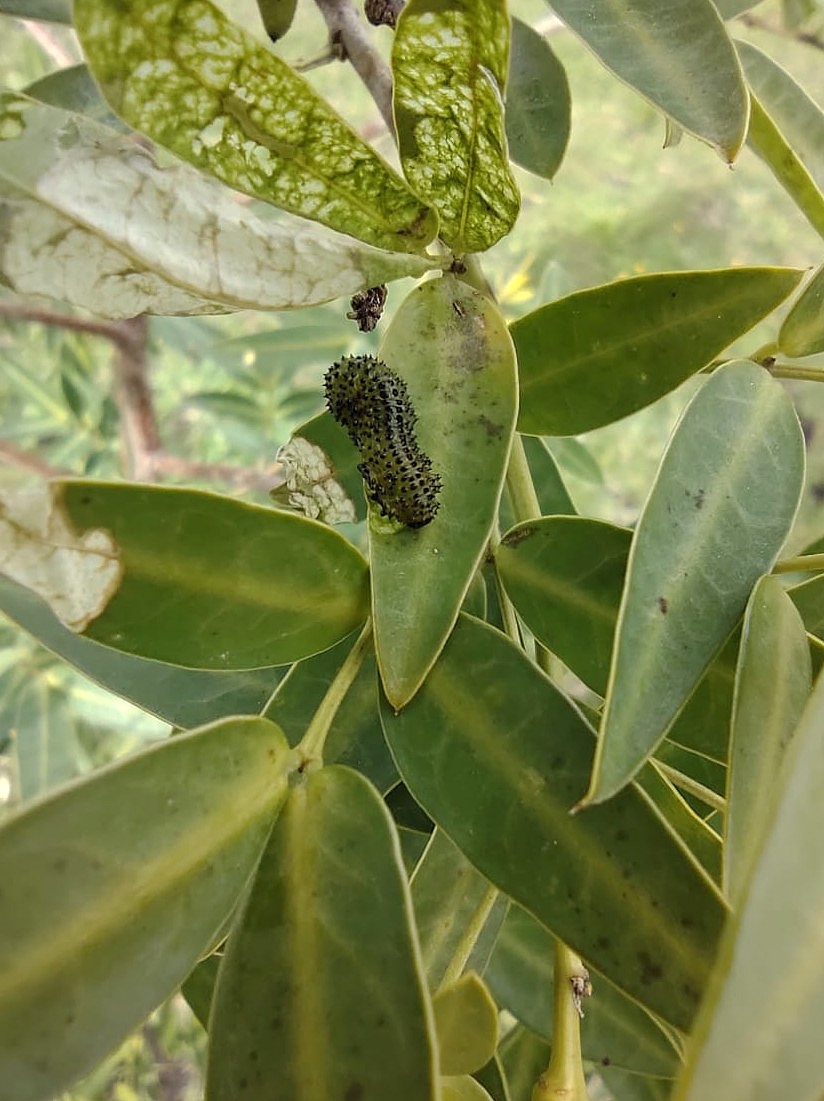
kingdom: Animalia
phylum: Arthropoda
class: Insecta
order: Hymenoptera
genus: Adurgoa
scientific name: Adurgoa
